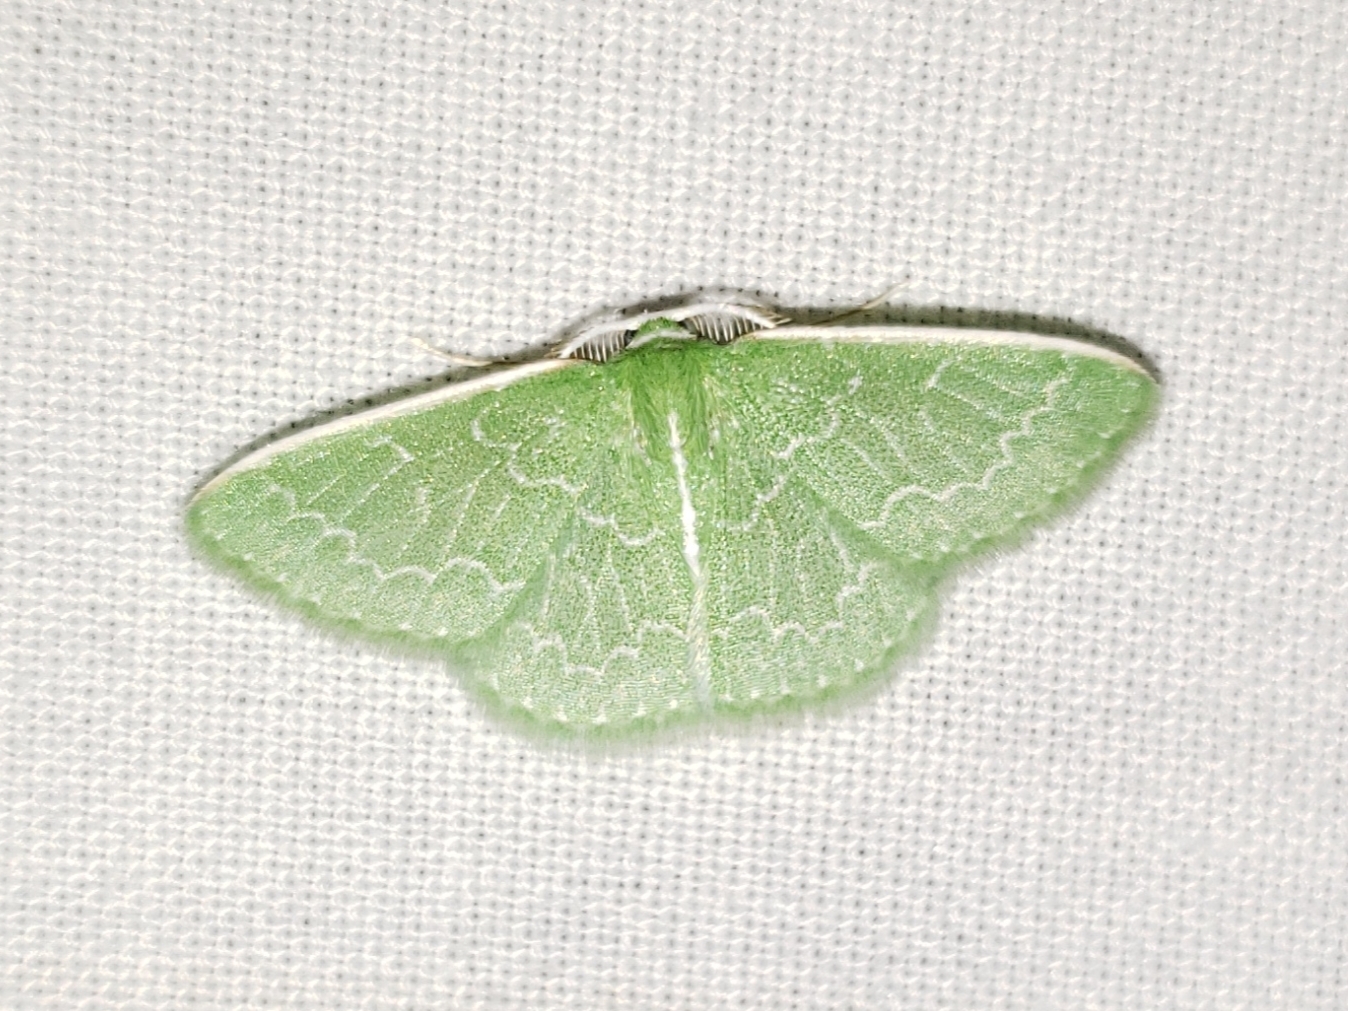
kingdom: Animalia
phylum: Arthropoda
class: Insecta
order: Lepidoptera
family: Geometridae
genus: Synchlora
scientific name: Synchlora frondaria
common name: Southern emerald
